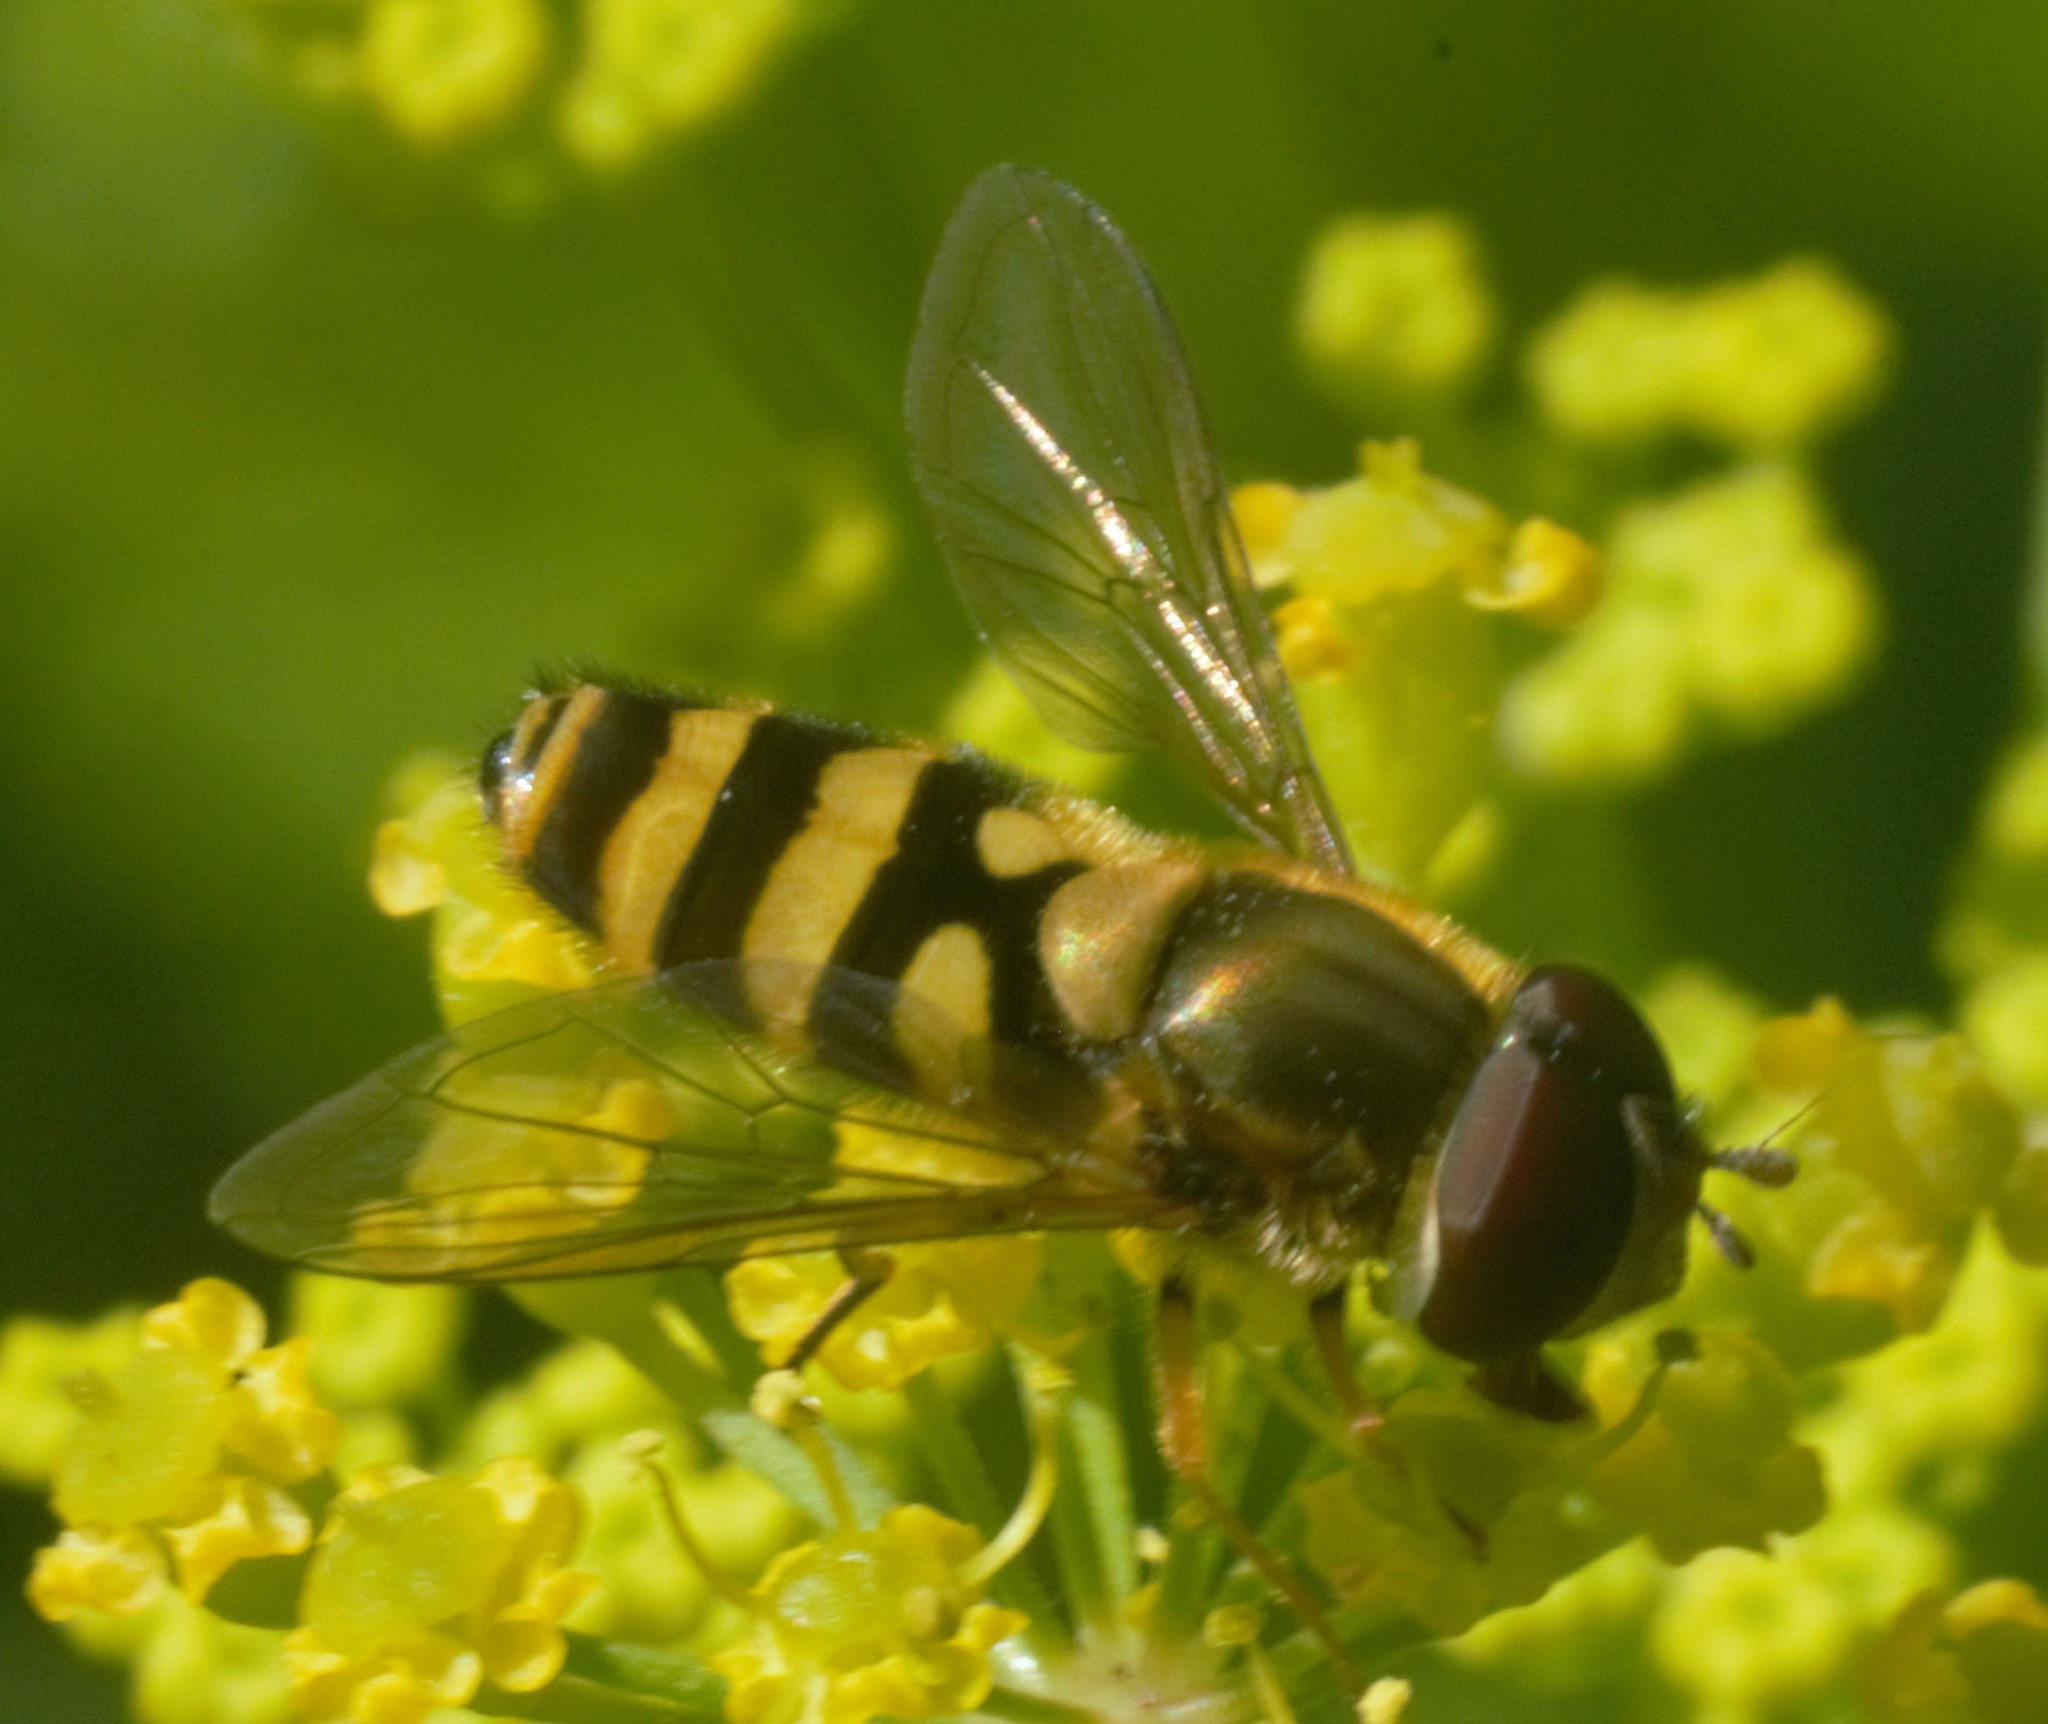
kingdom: Animalia
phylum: Arthropoda
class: Insecta
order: Diptera
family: Syrphidae
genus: Syrphus
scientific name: Syrphus
